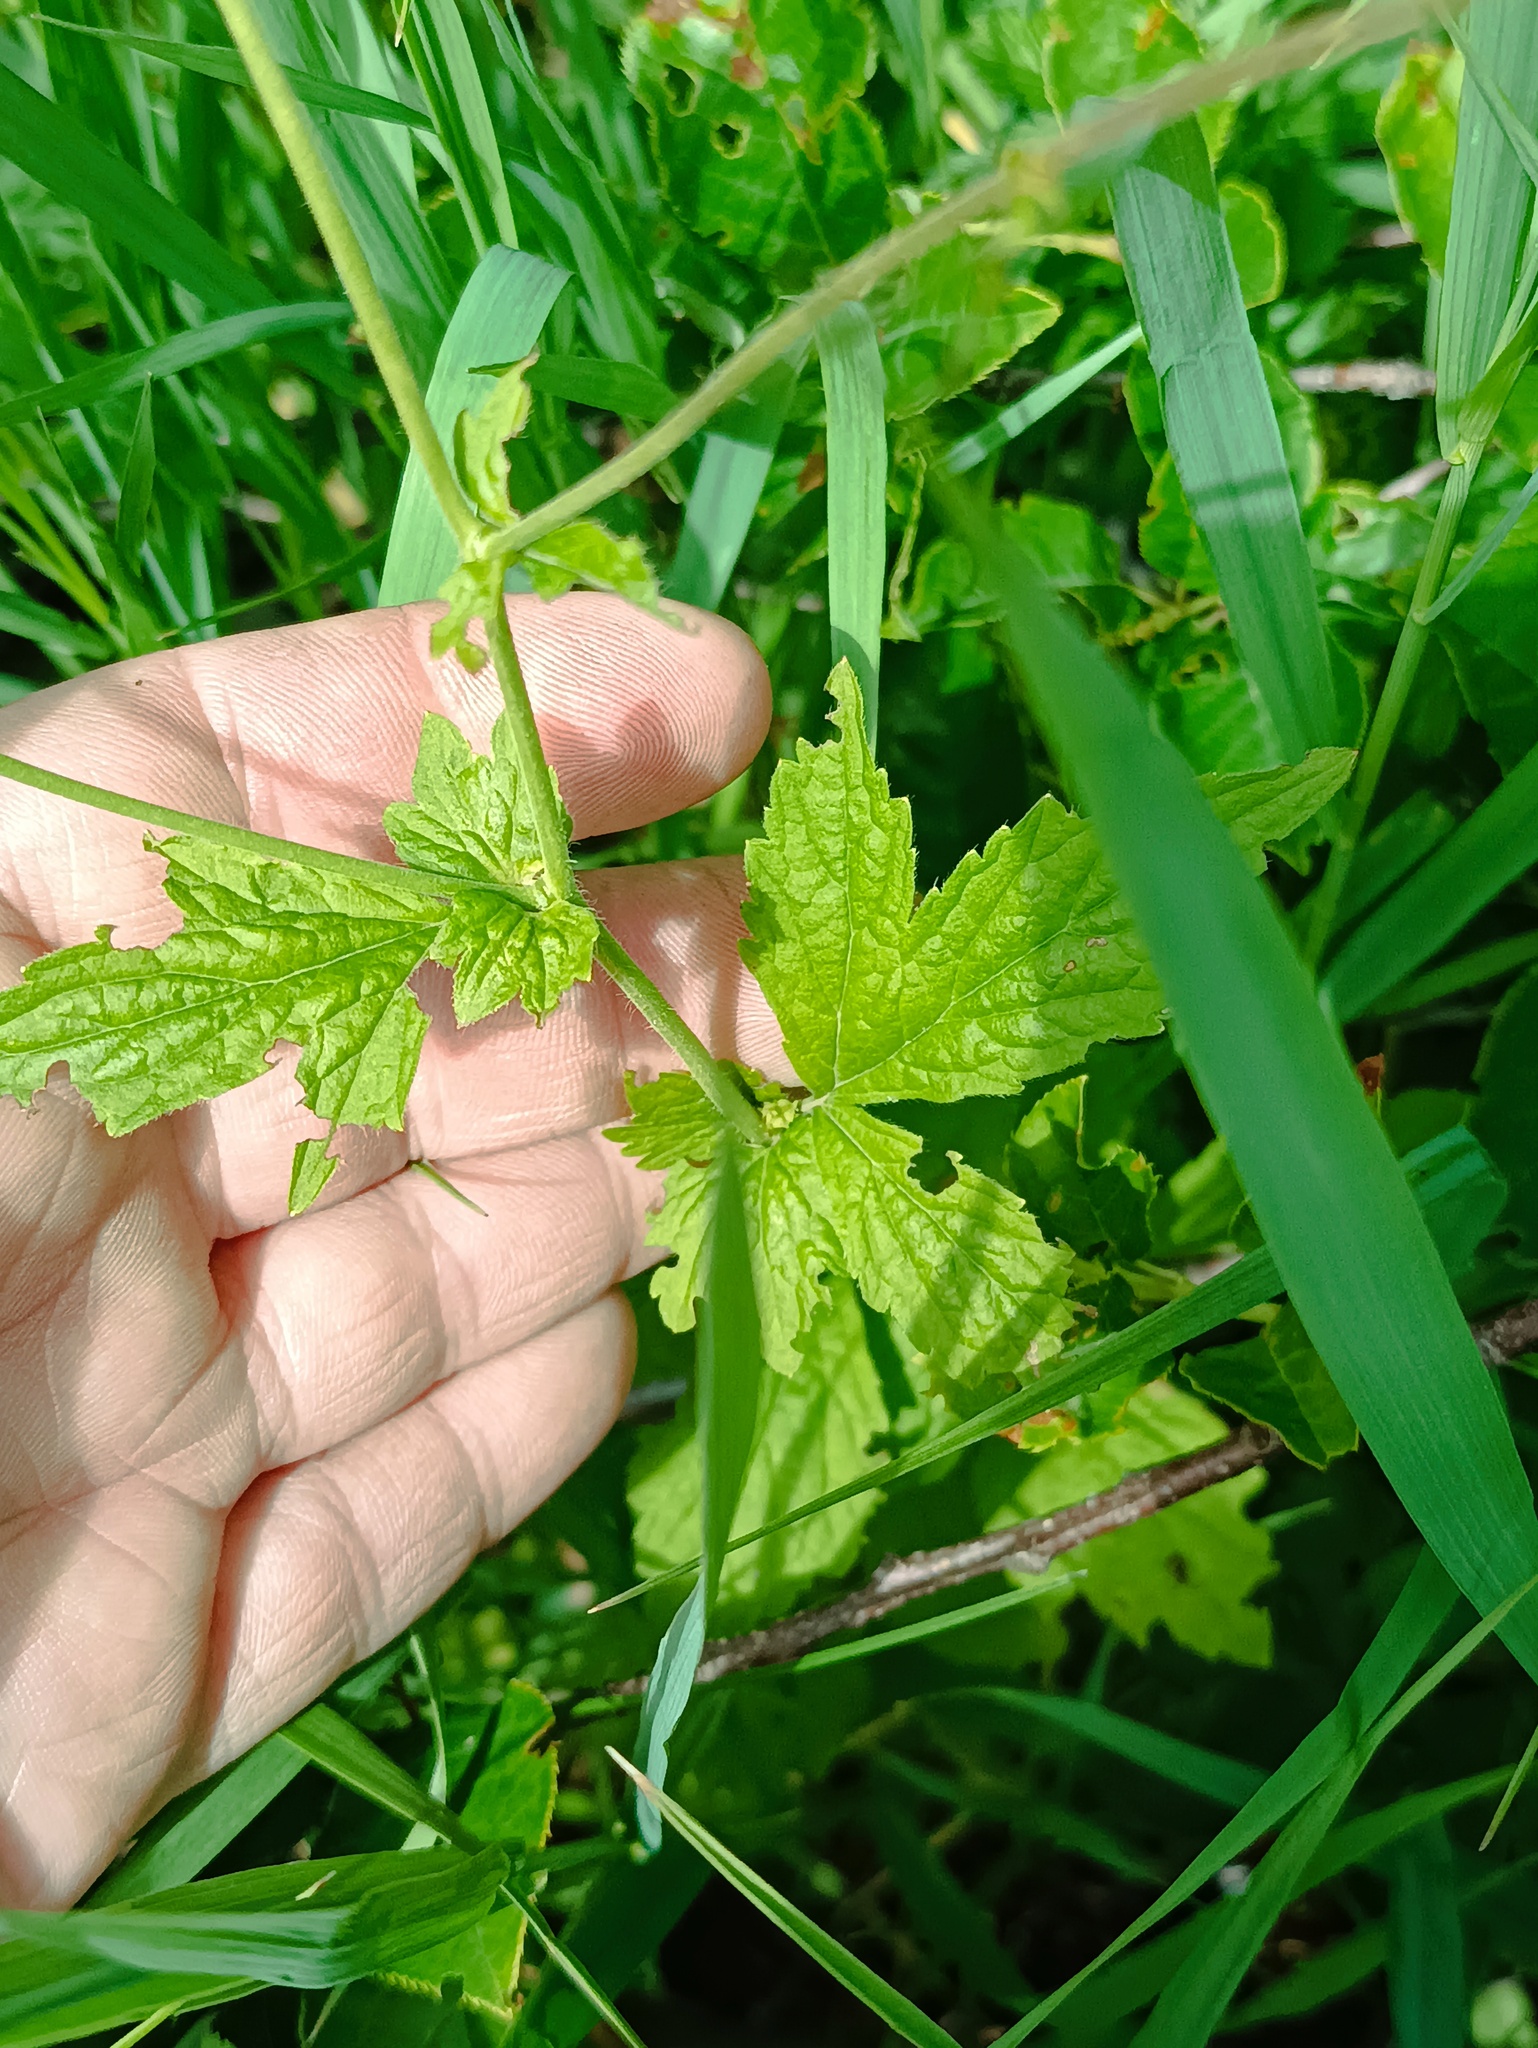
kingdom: Plantae
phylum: Tracheophyta
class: Magnoliopsida
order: Rosales
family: Rosaceae
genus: Geum
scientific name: Geum urbanum
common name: Wood avens
